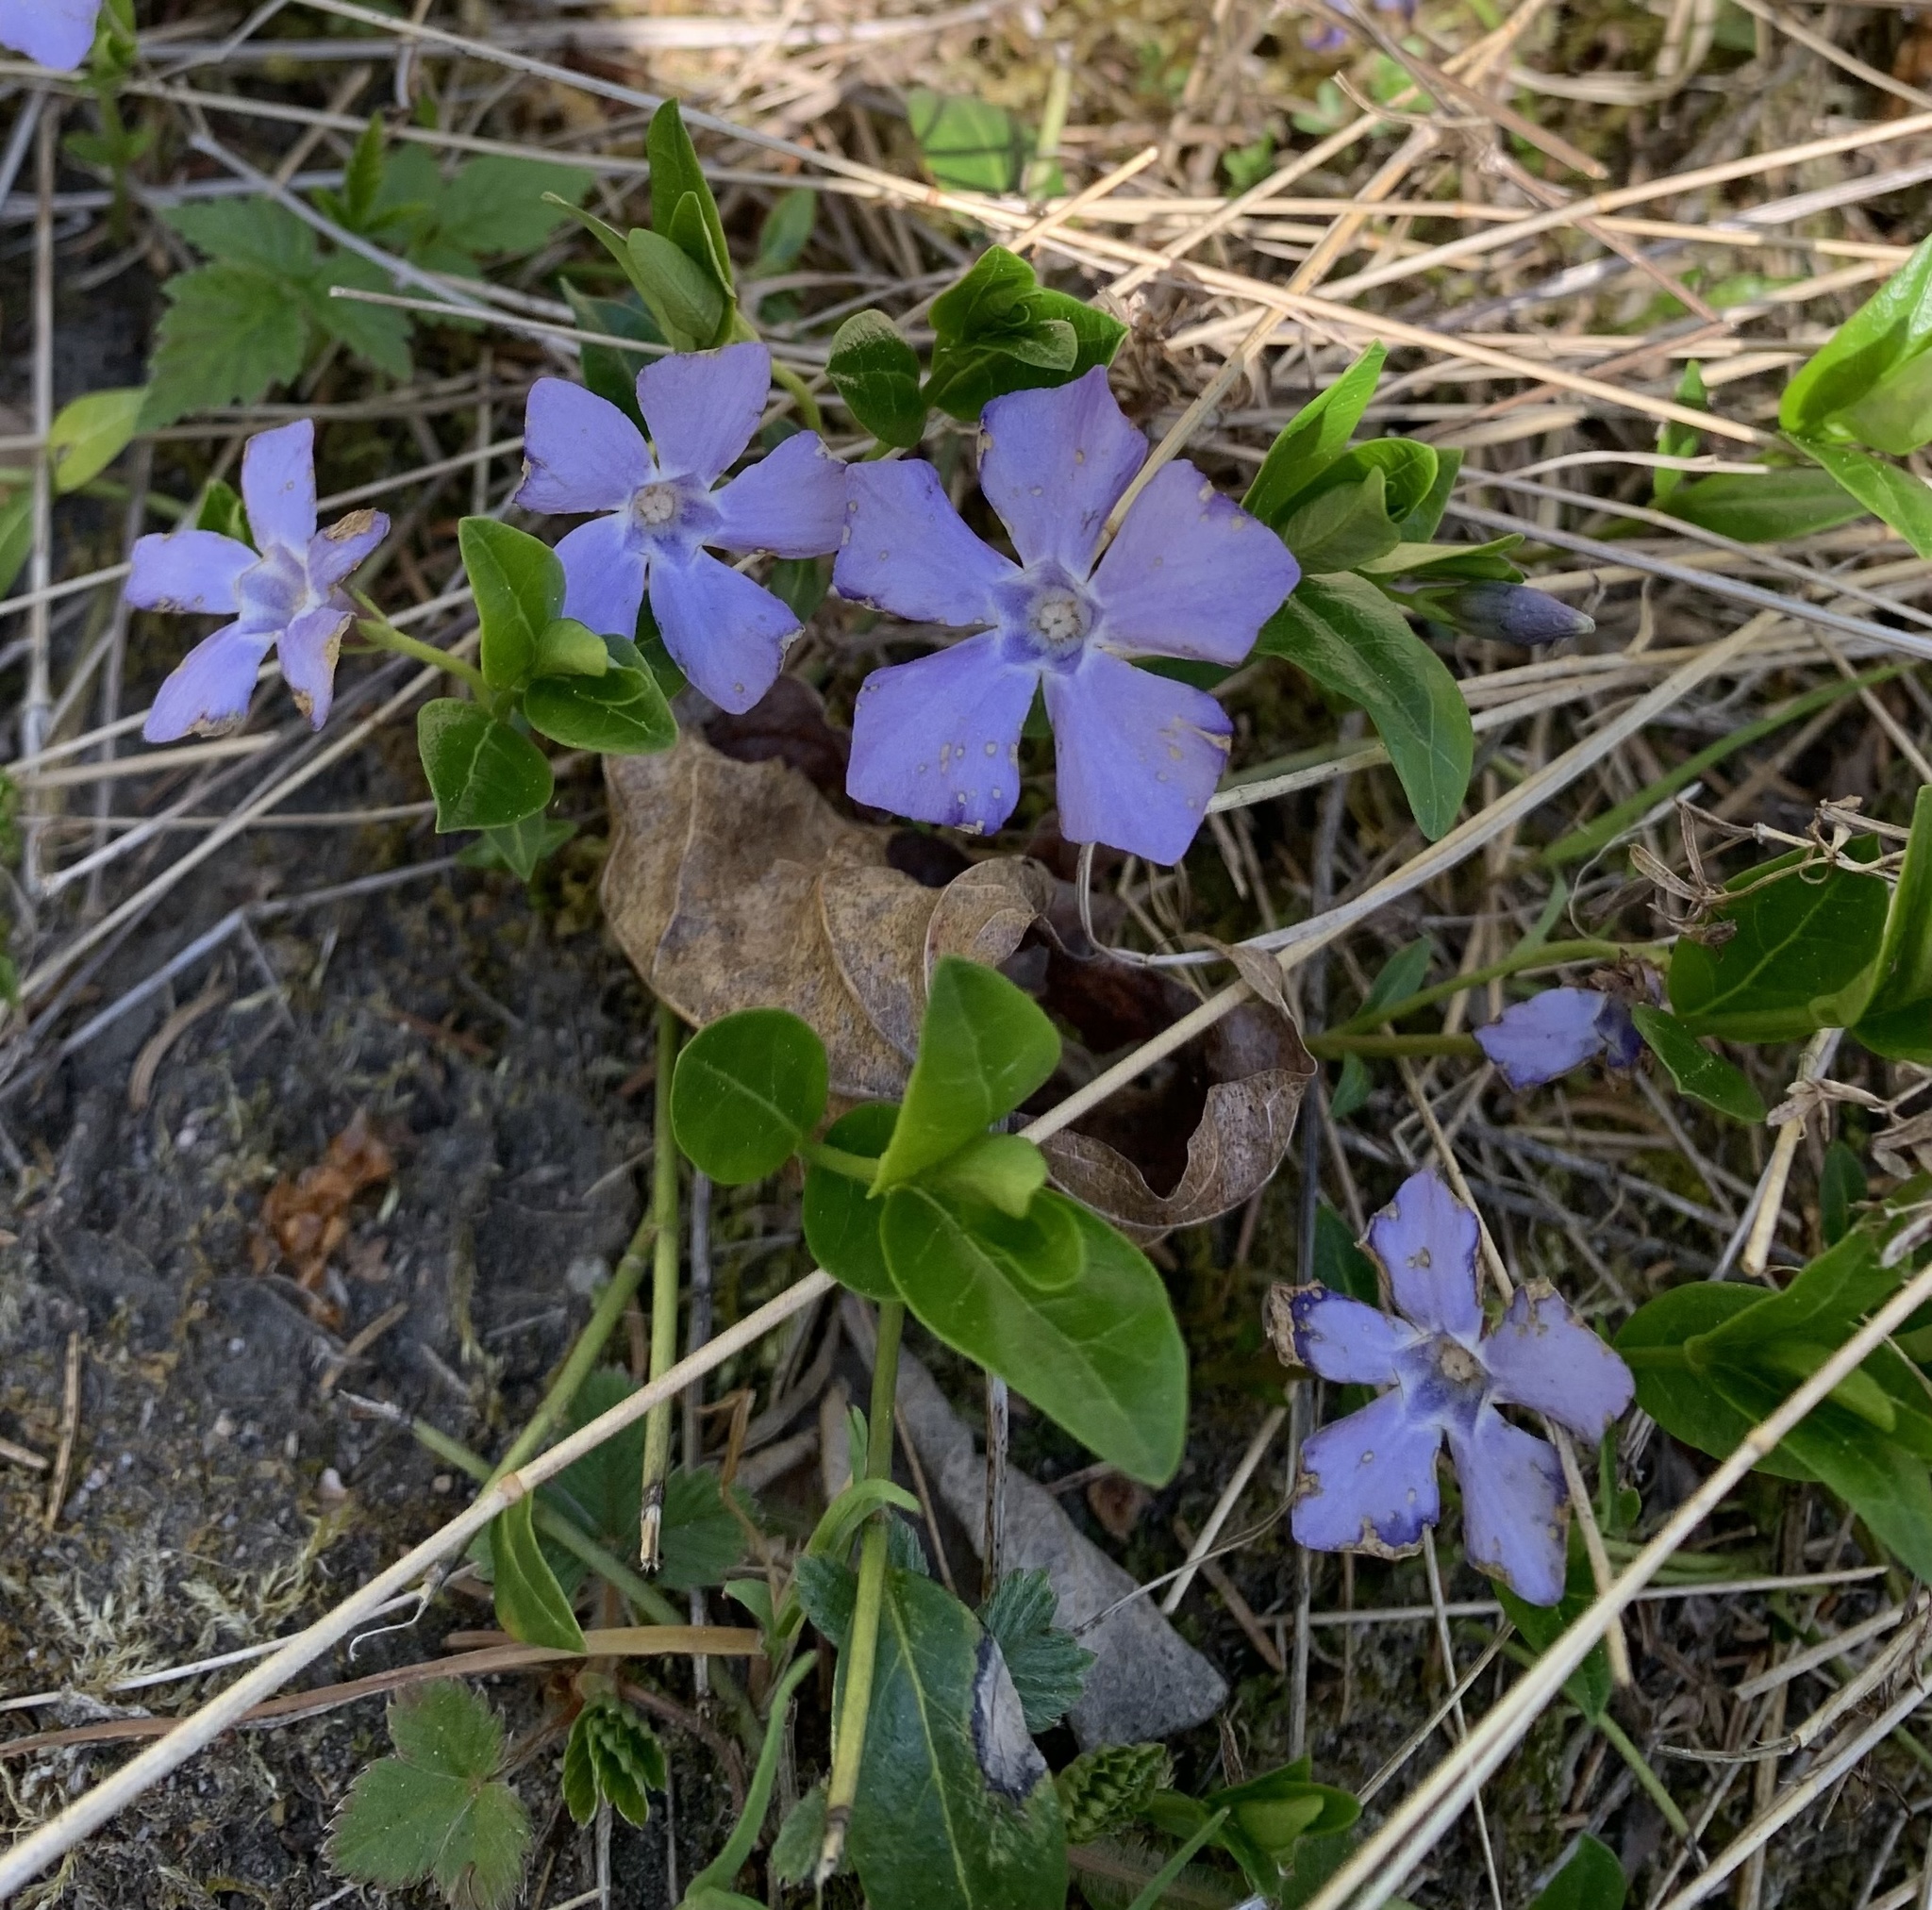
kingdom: Plantae
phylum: Tracheophyta
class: Magnoliopsida
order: Gentianales
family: Apocynaceae
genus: Vinca
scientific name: Vinca minor
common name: Lesser periwinkle
